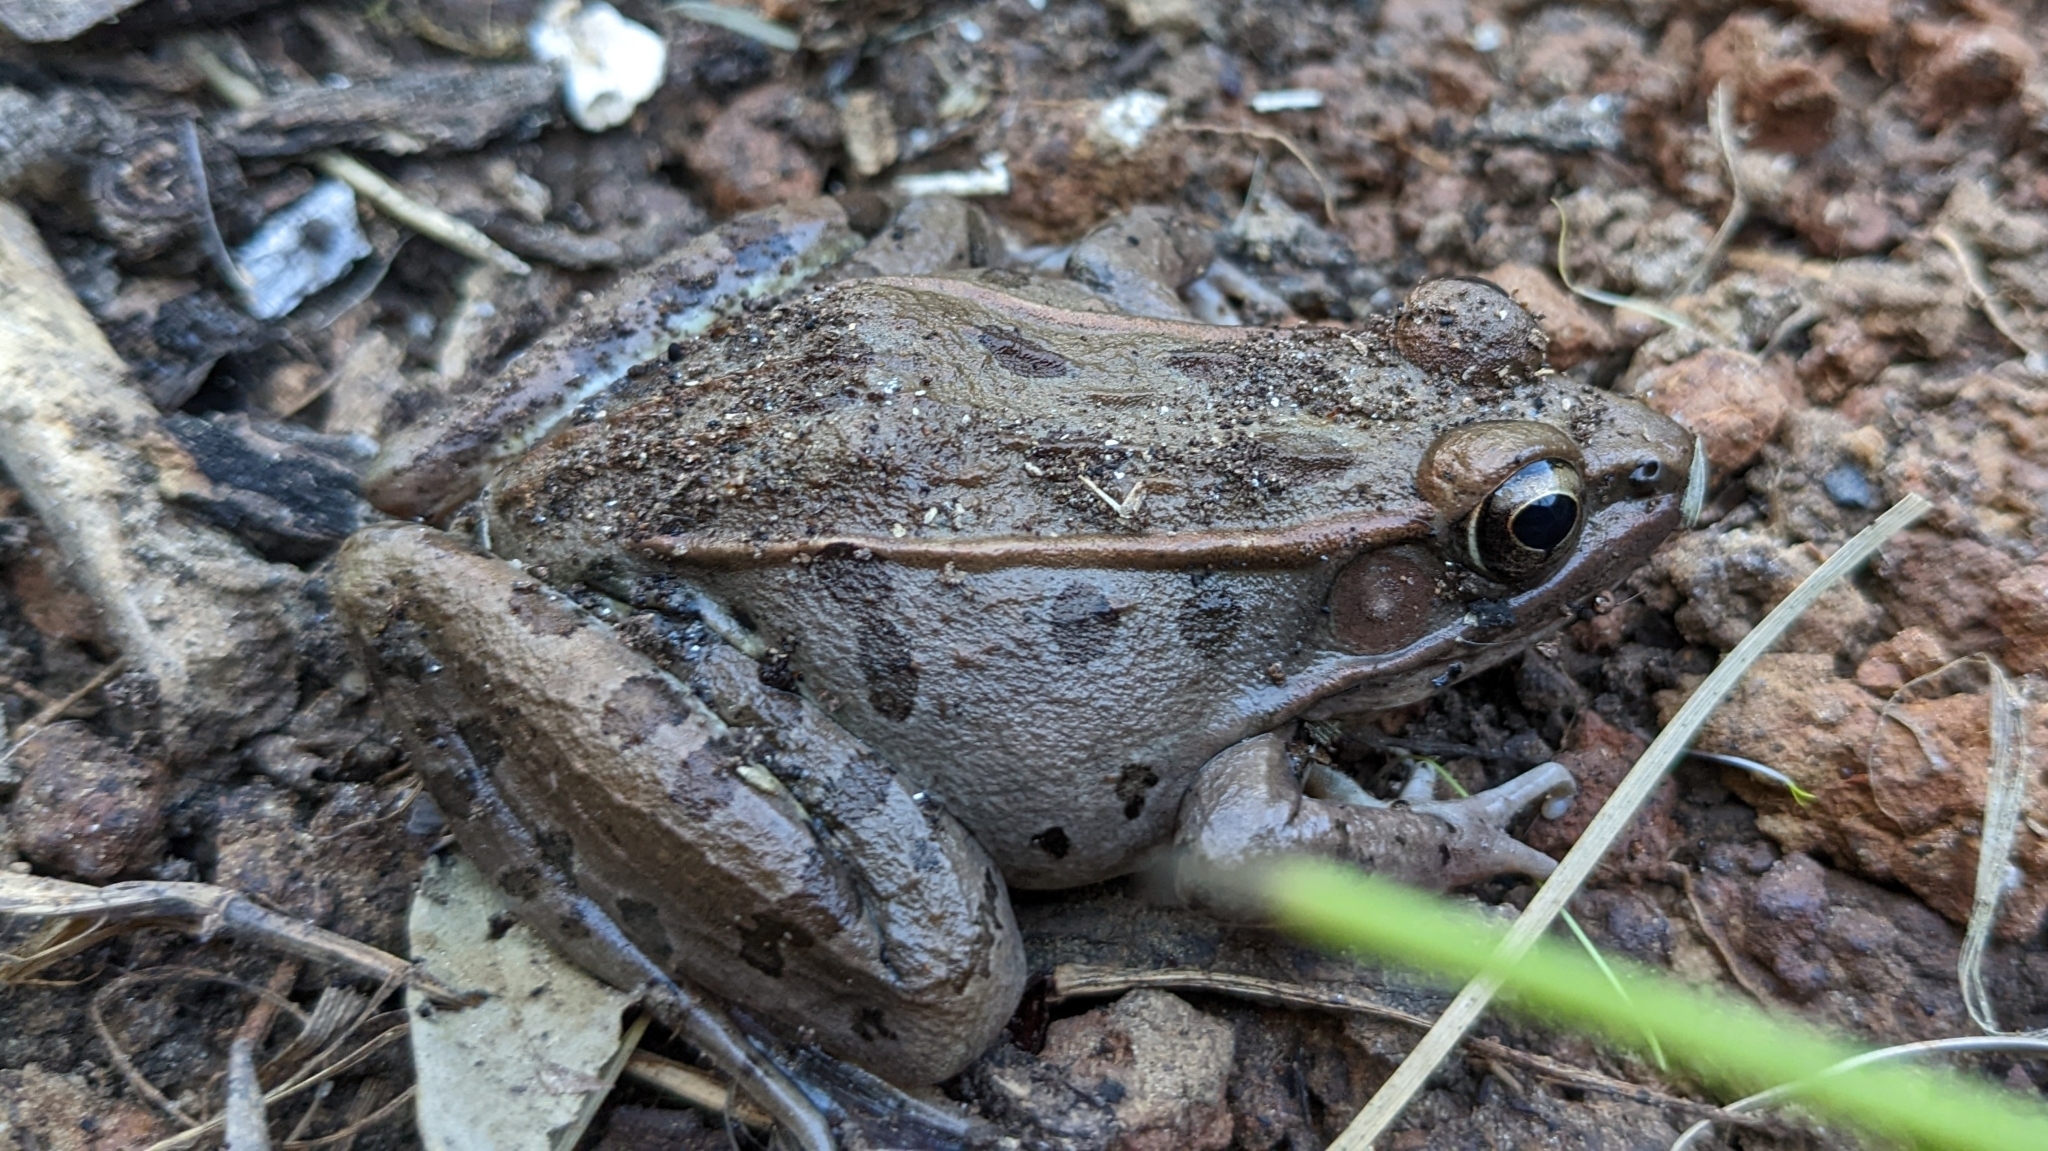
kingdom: Animalia
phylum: Chordata
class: Amphibia
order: Anura
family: Ranidae
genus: Lithobates
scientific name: Lithobates sphenocephalus
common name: Southern leopard frog
